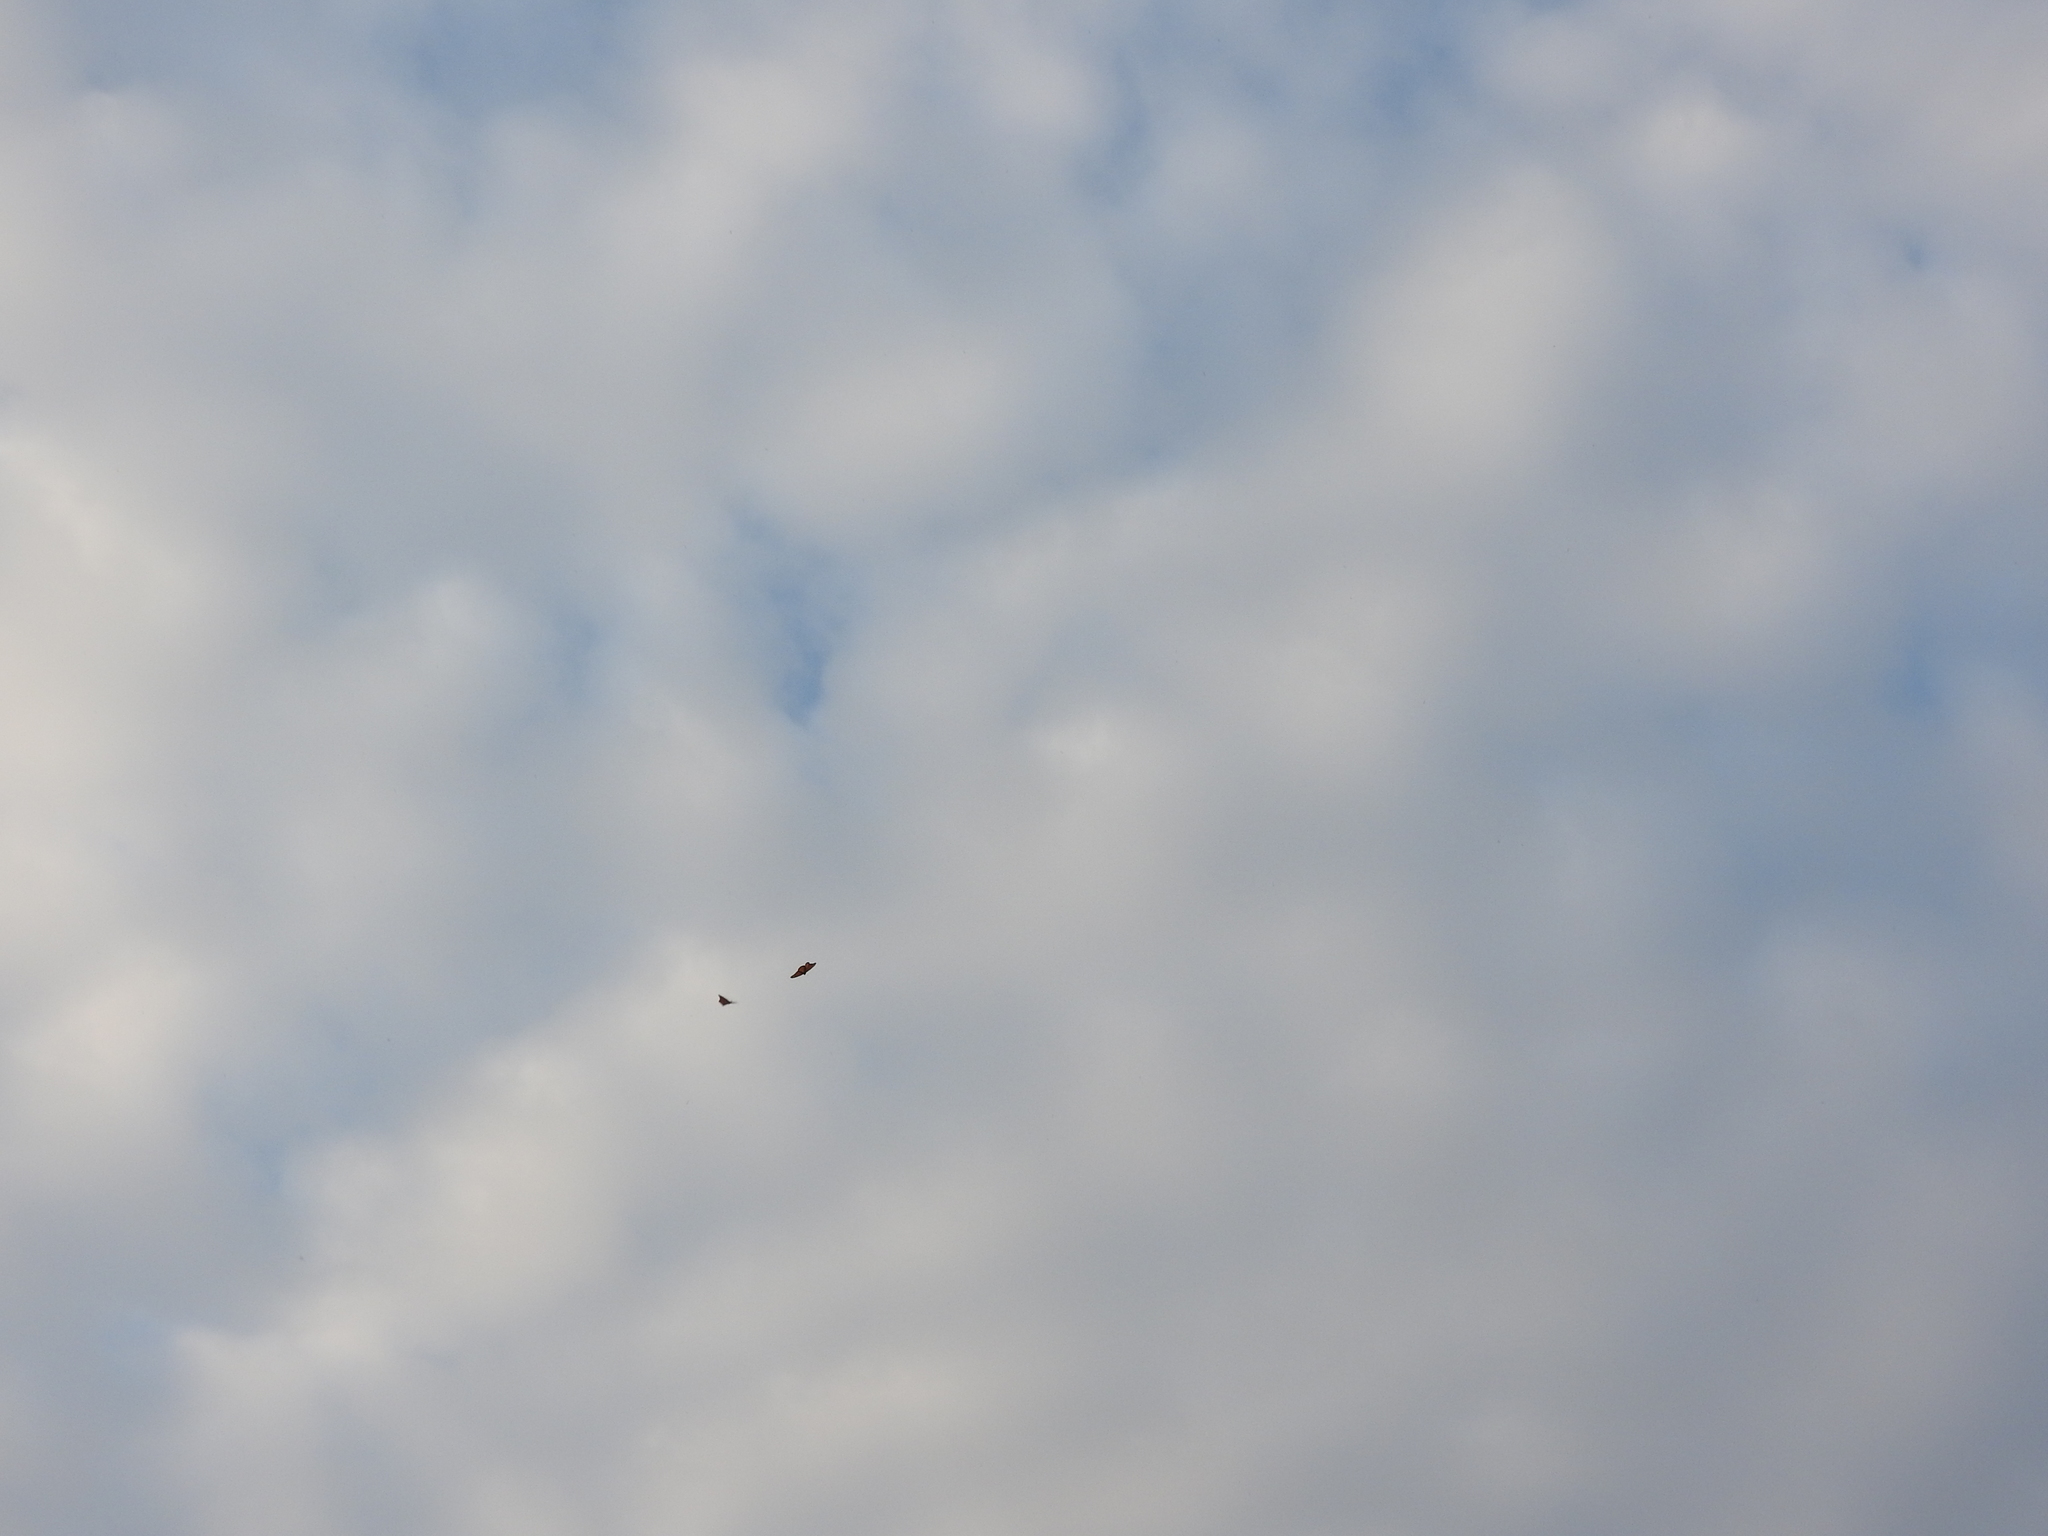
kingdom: Animalia
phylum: Arthropoda
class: Insecta
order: Lepidoptera
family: Nymphalidae
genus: Danaus
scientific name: Danaus plexippus
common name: Monarch
